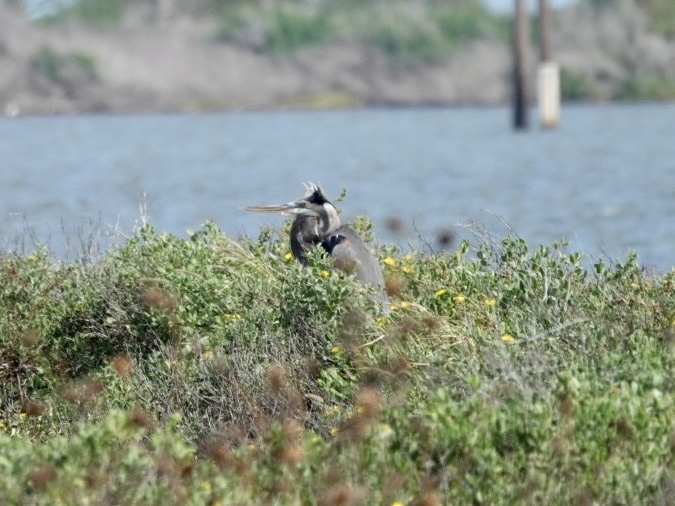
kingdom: Animalia
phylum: Chordata
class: Aves
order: Pelecaniformes
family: Ardeidae
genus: Ardea
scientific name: Ardea herodias
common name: Great blue heron
